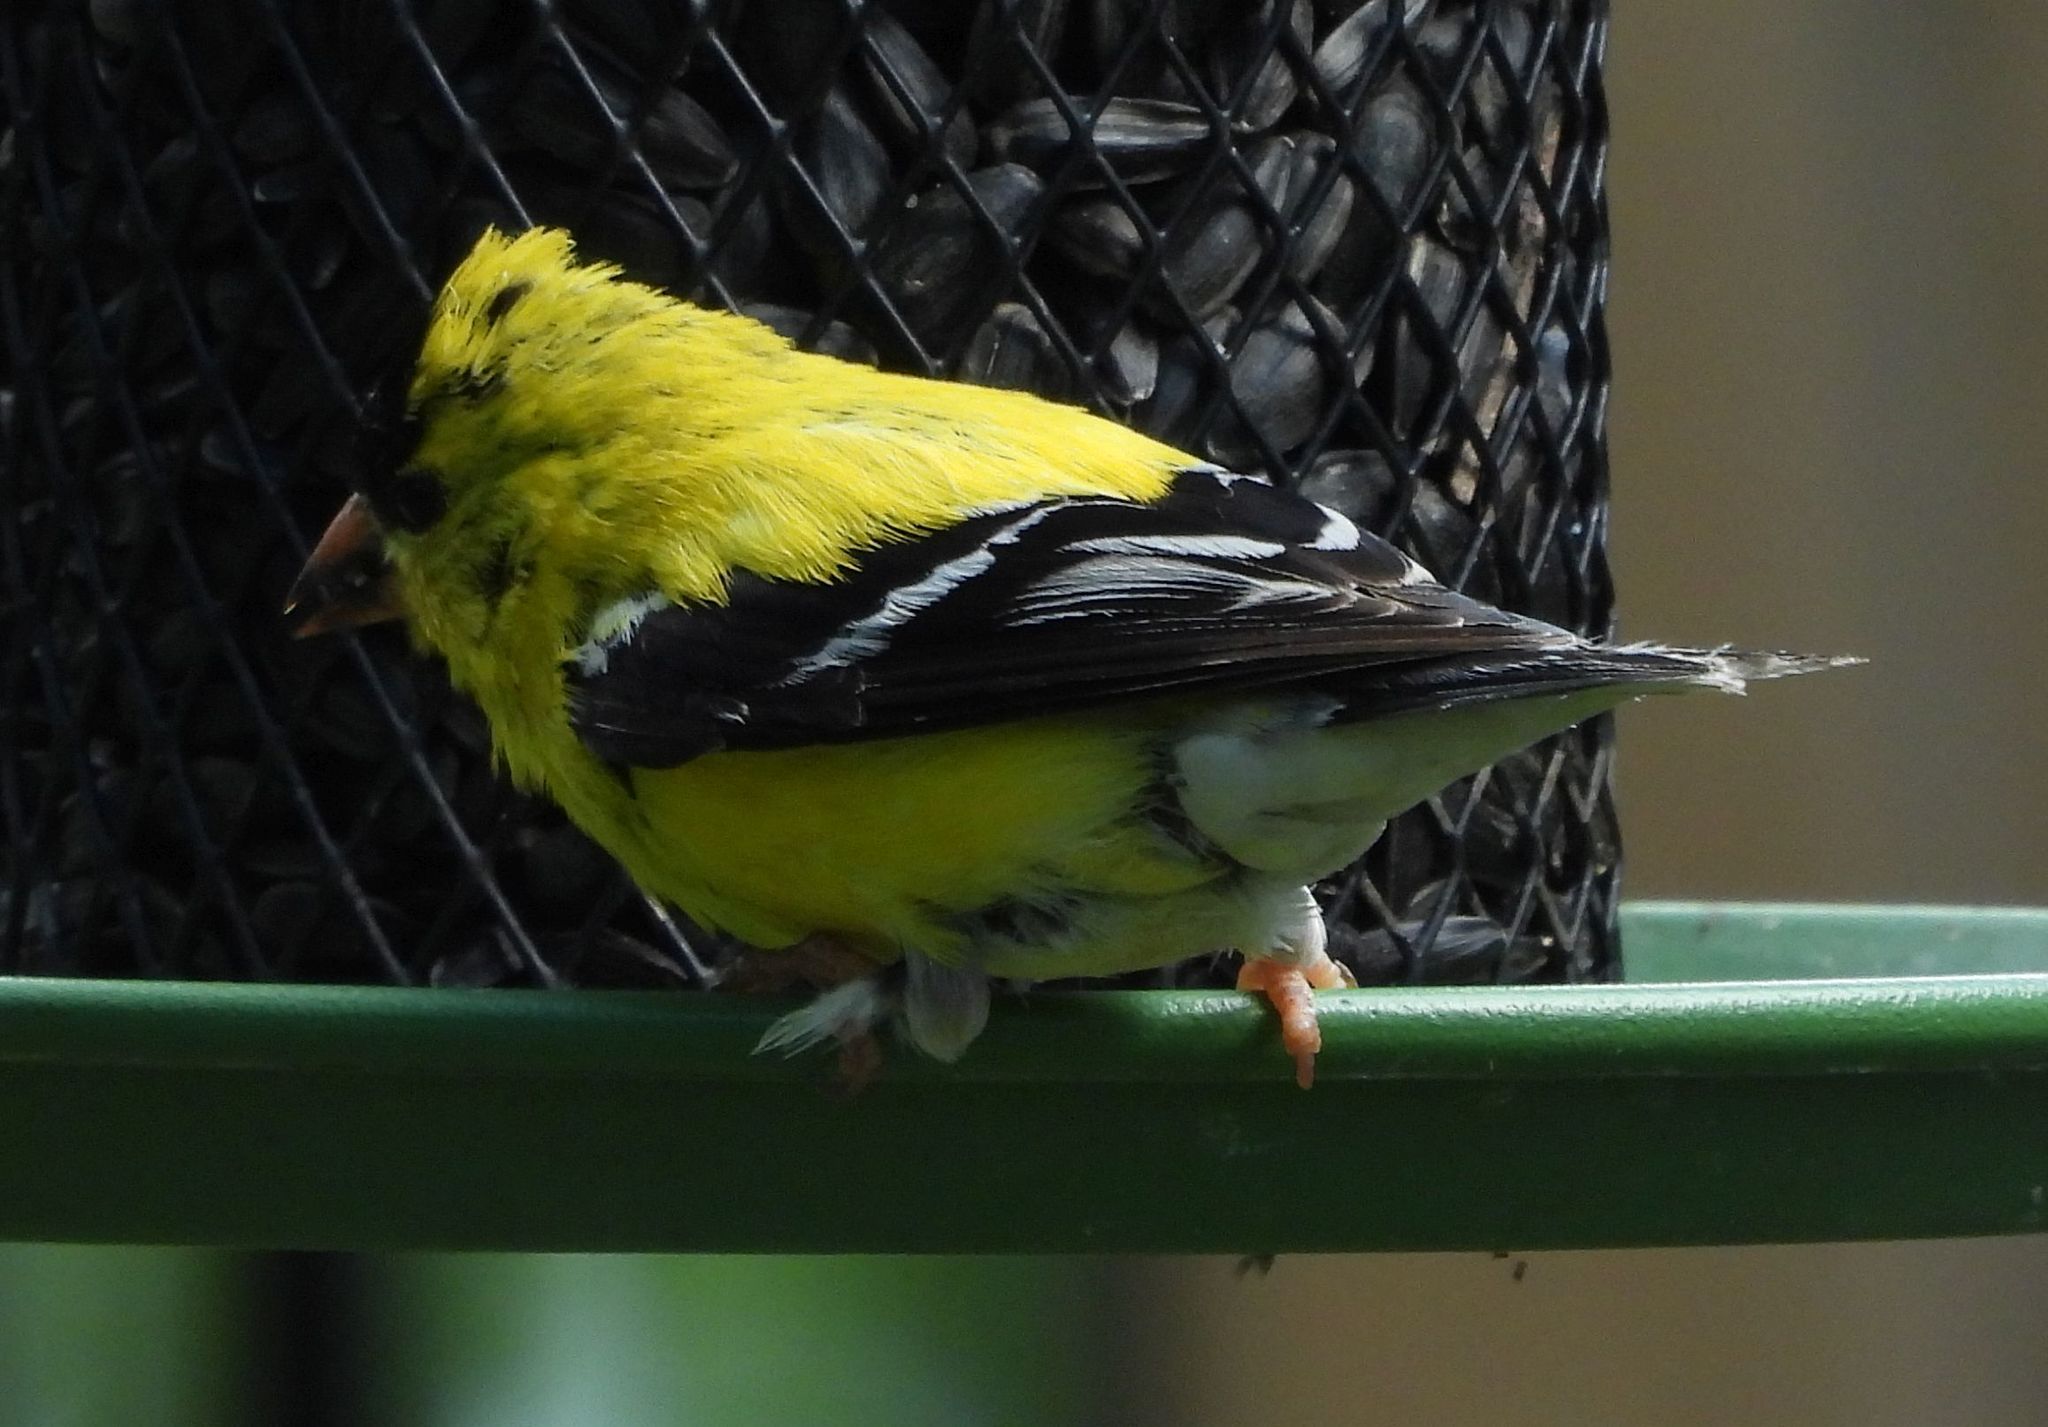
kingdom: Animalia
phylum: Chordata
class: Aves
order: Passeriformes
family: Fringillidae
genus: Spinus
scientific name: Spinus tristis
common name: American goldfinch
